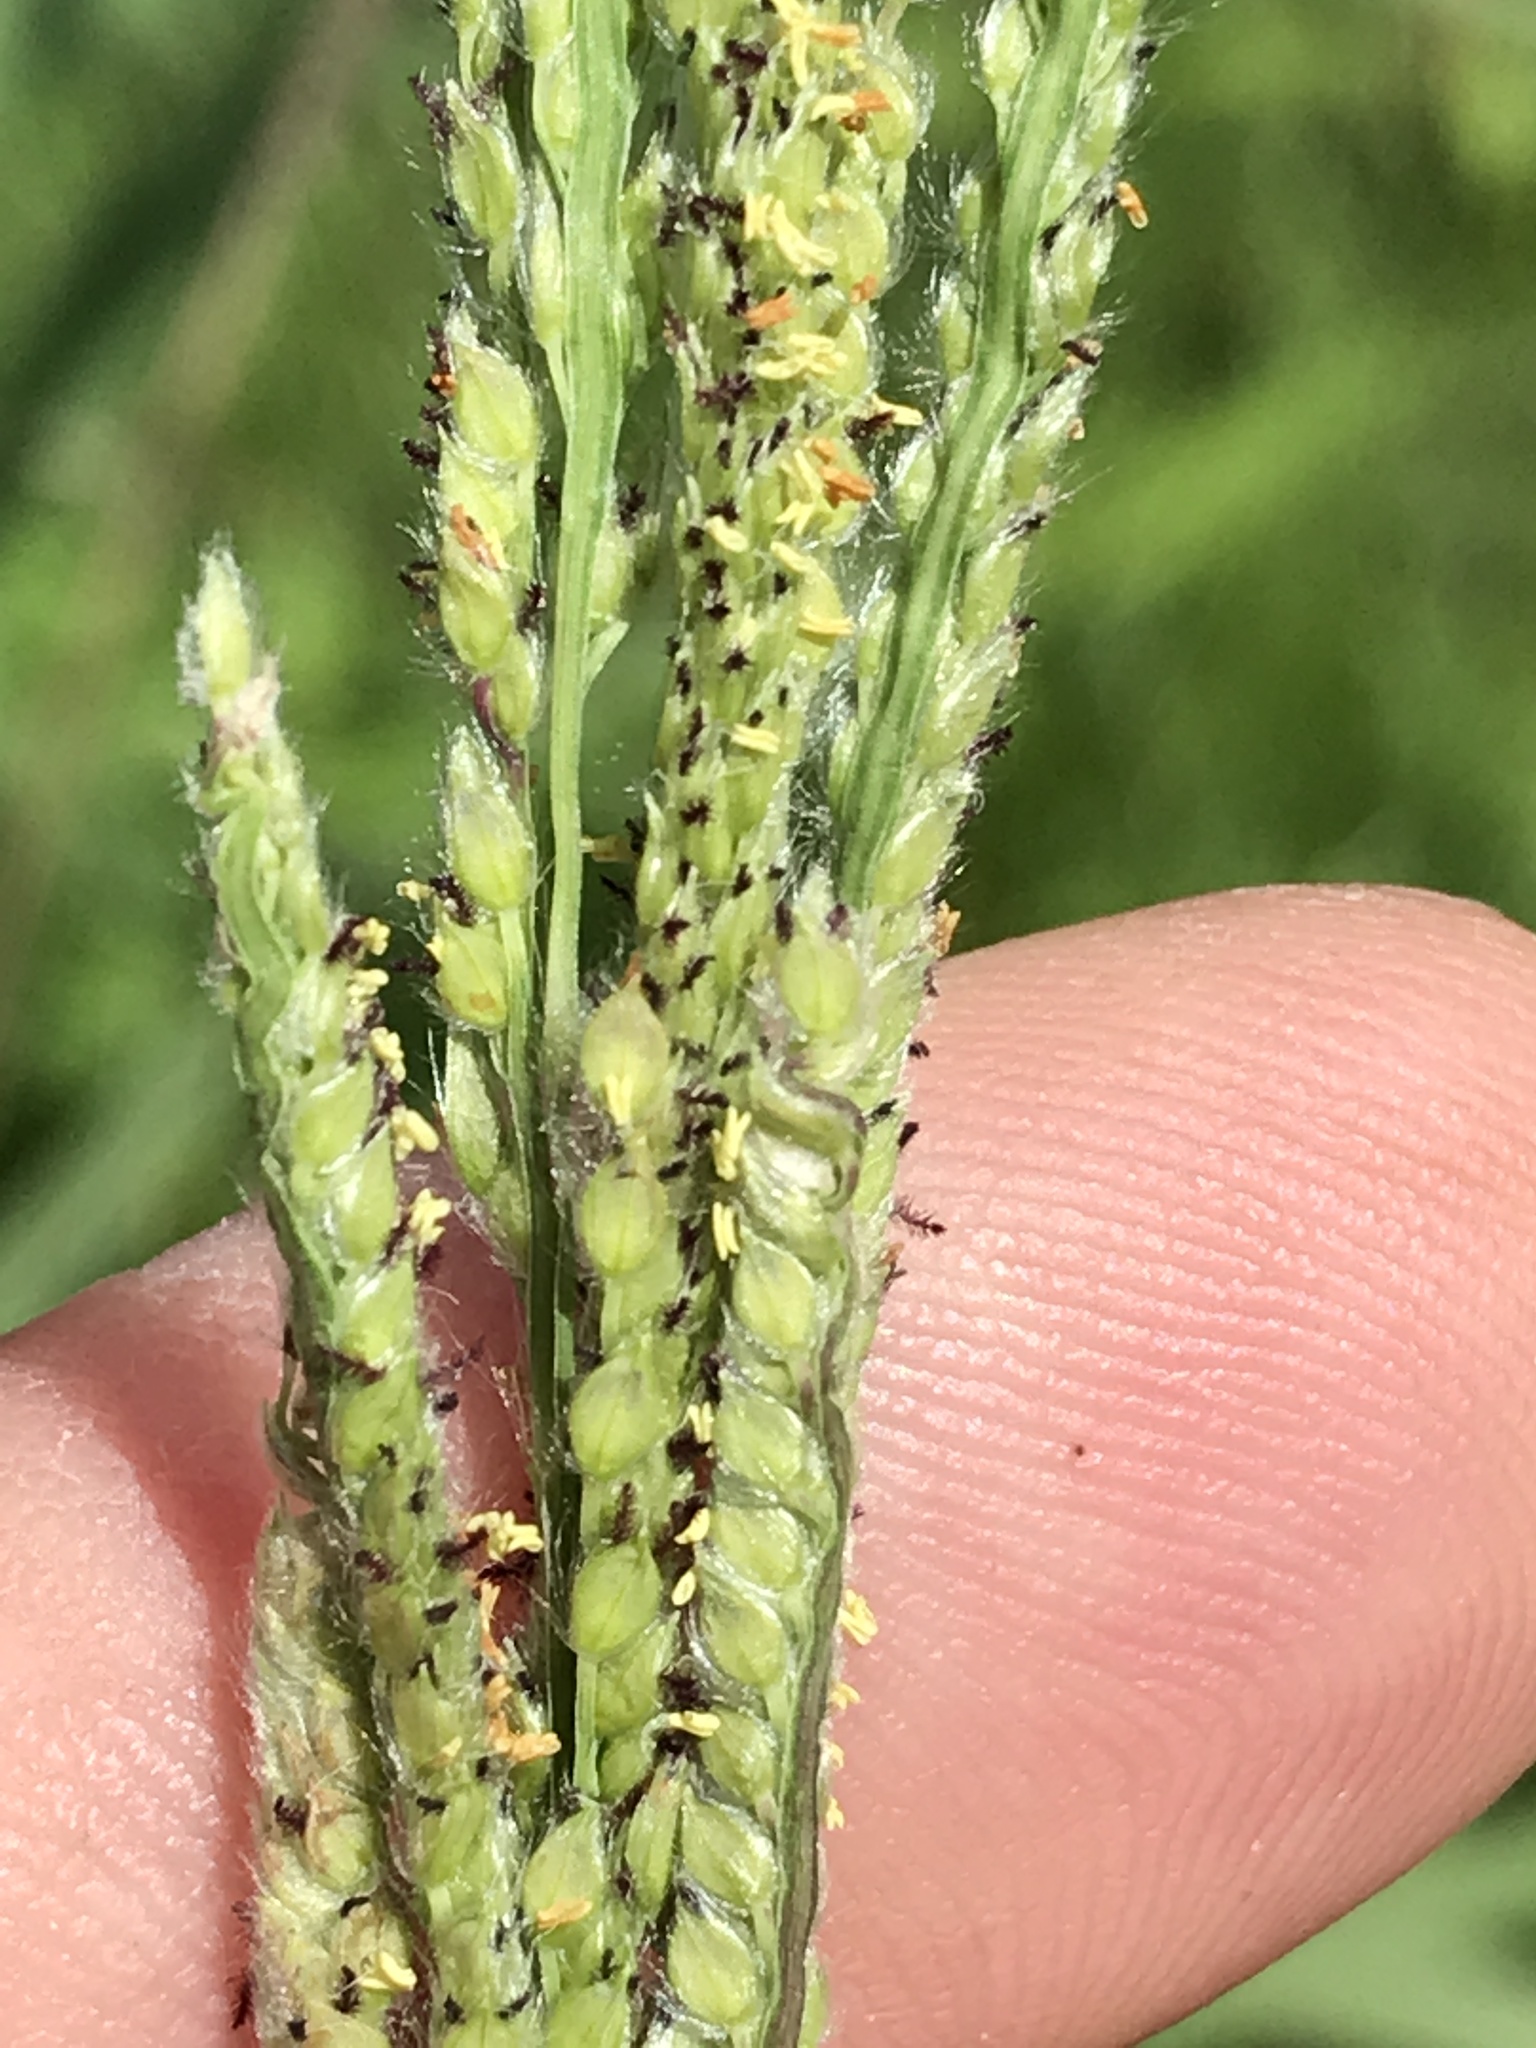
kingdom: Plantae
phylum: Tracheophyta
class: Liliopsida
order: Poales
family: Poaceae
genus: Paspalum
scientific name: Paspalum urvillei
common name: Vasey's grass
